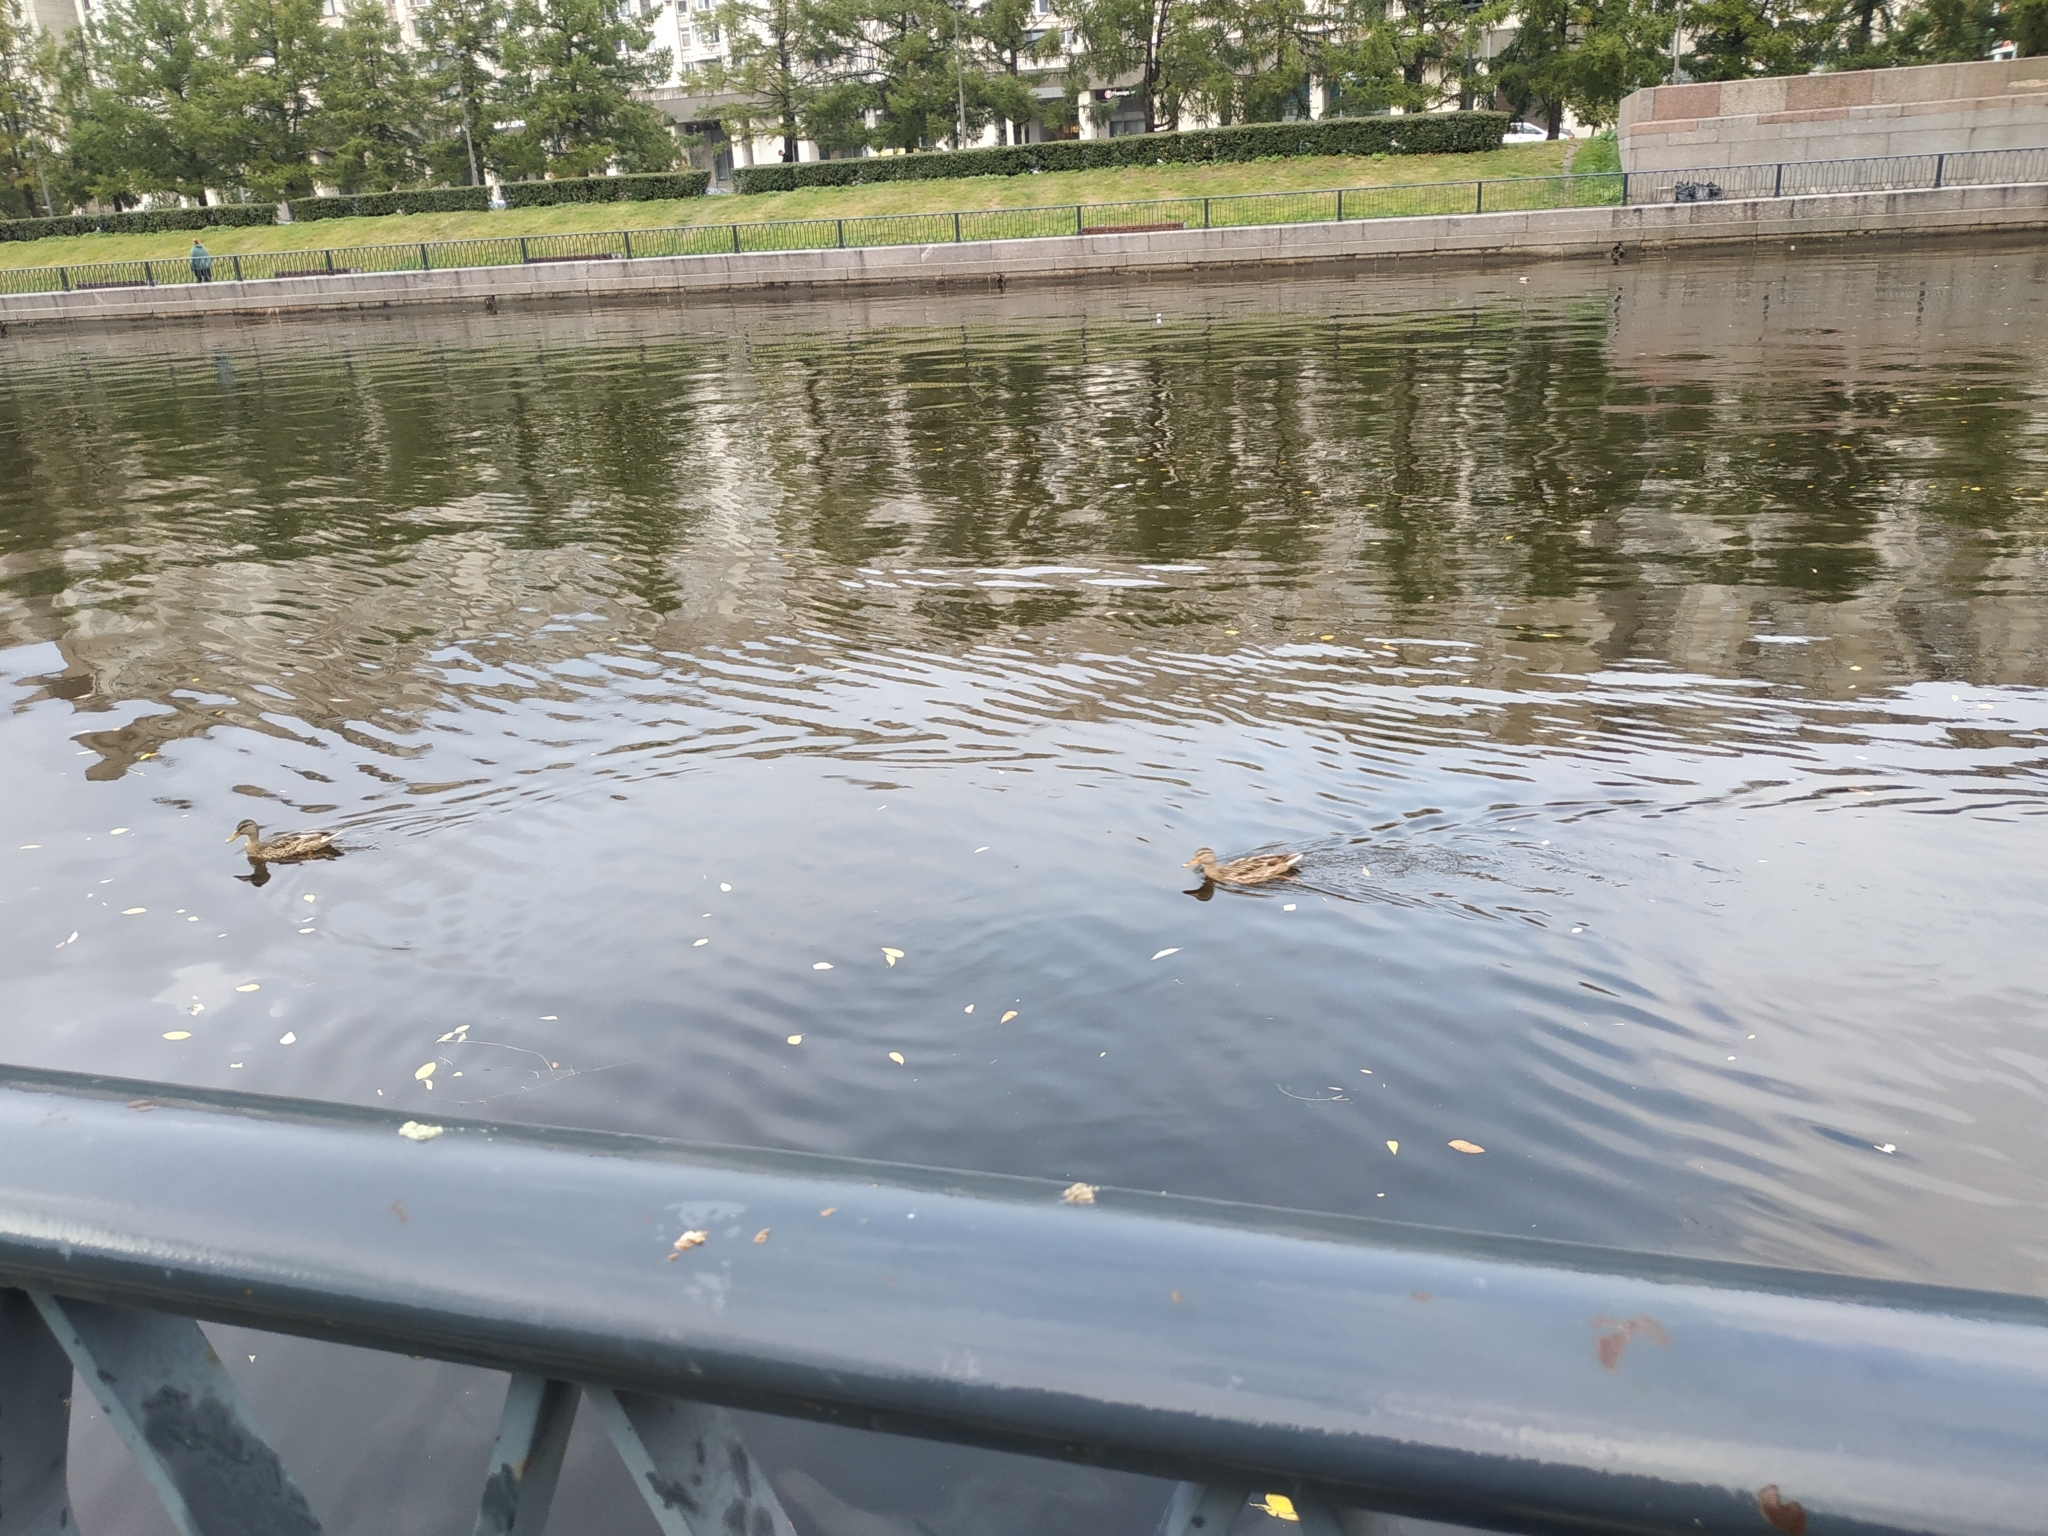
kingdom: Animalia
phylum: Chordata
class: Aves
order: Anseriformes
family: Anatidae
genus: Anas
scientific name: Anas platyrhynchos
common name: Mallard
